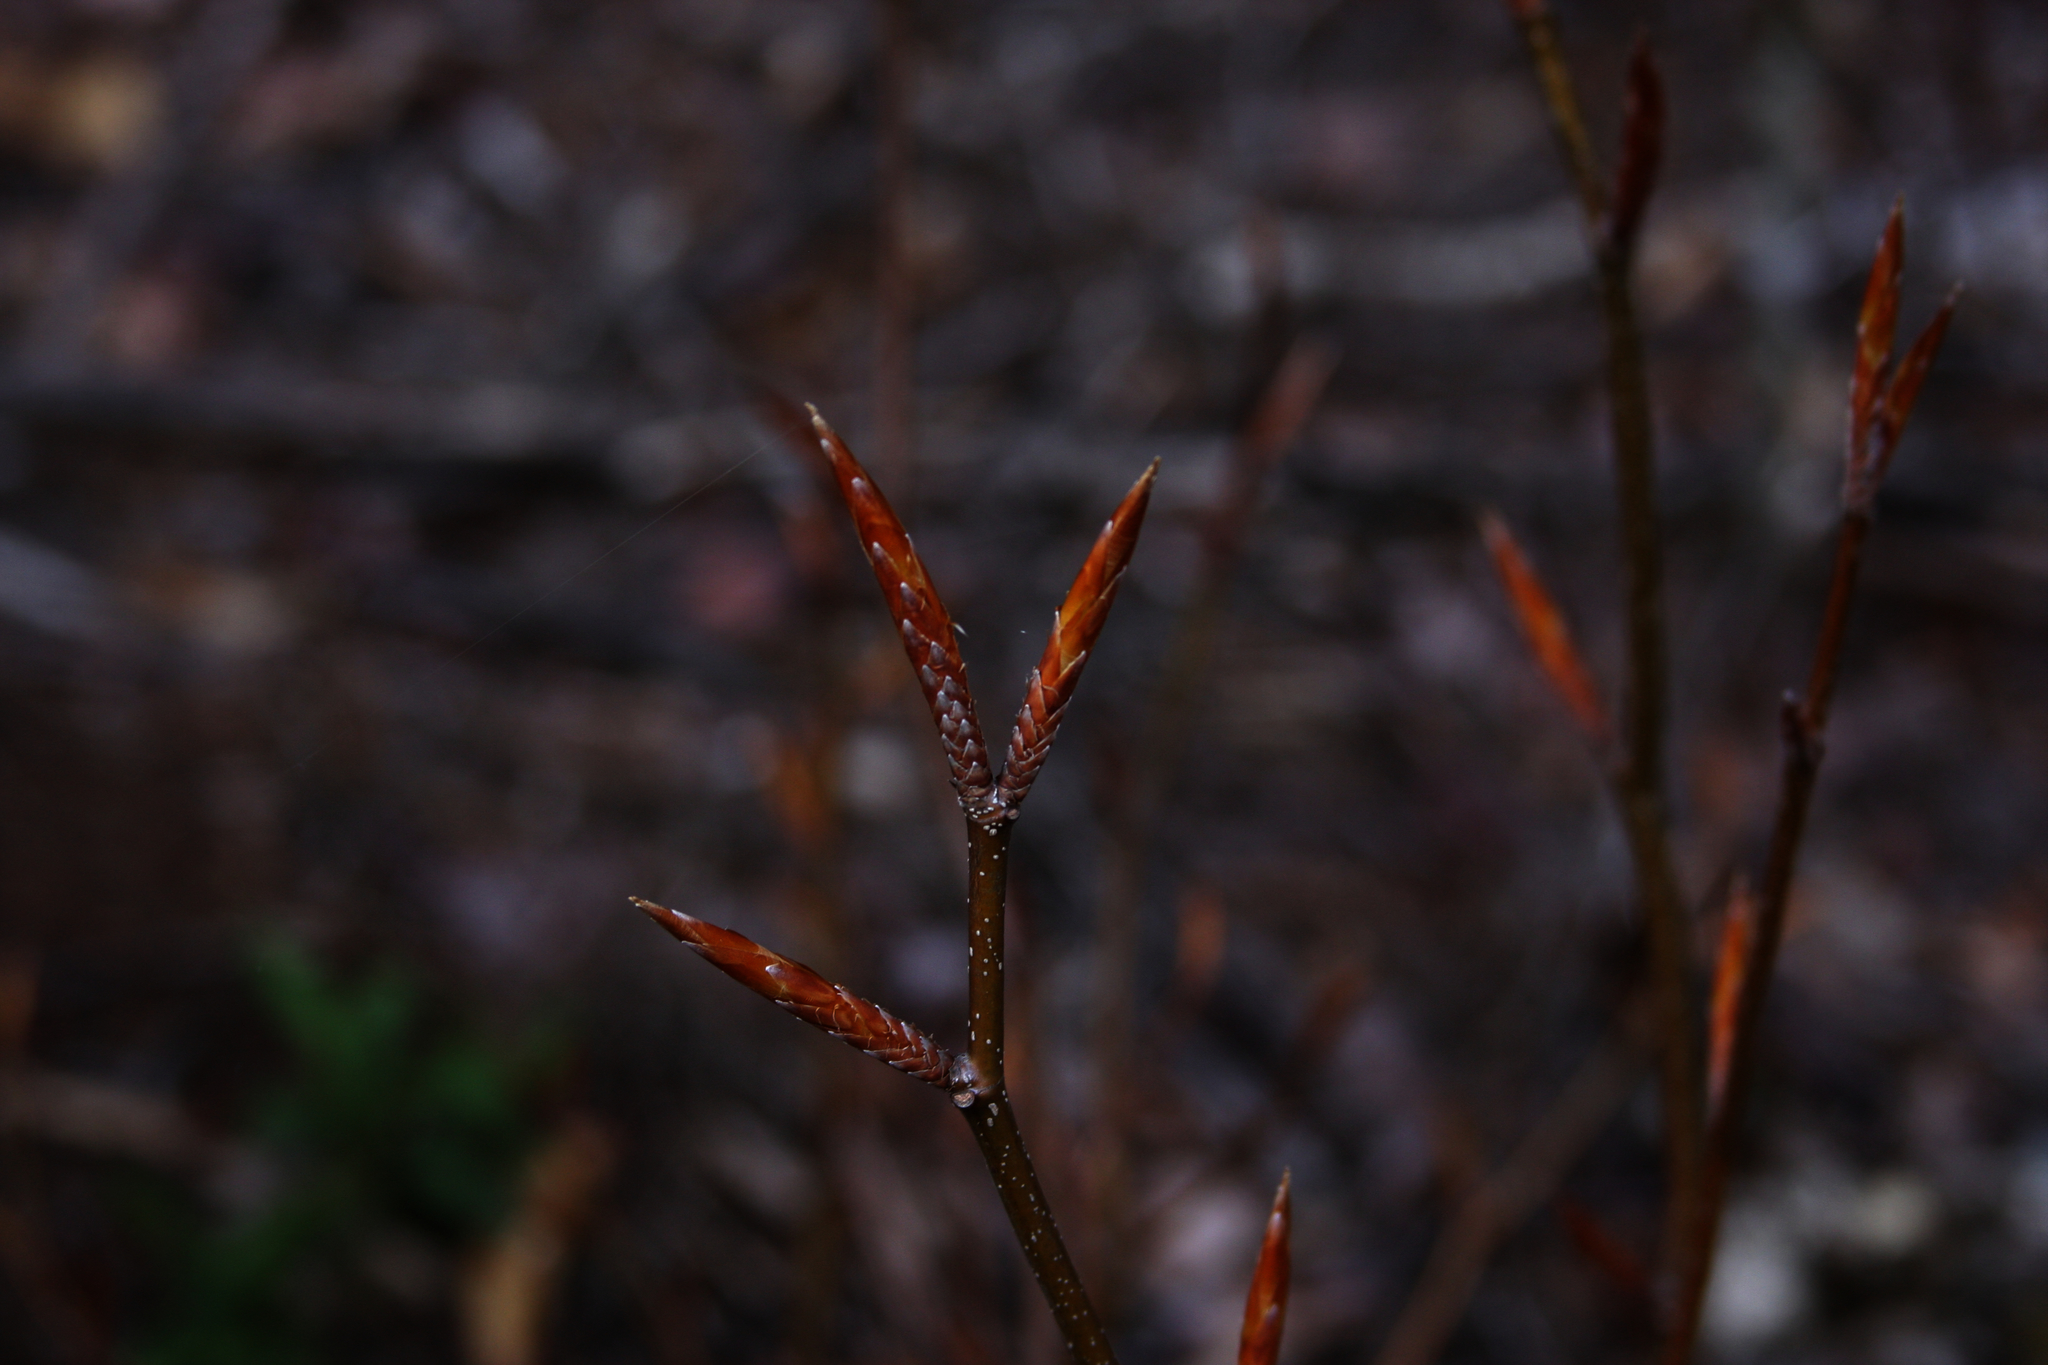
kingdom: Plantae
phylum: Tracheophyta
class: Magnoliopsida
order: Fagales
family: Fagaceae
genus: Fagus
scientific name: Fagus grandifolia
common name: American beech
